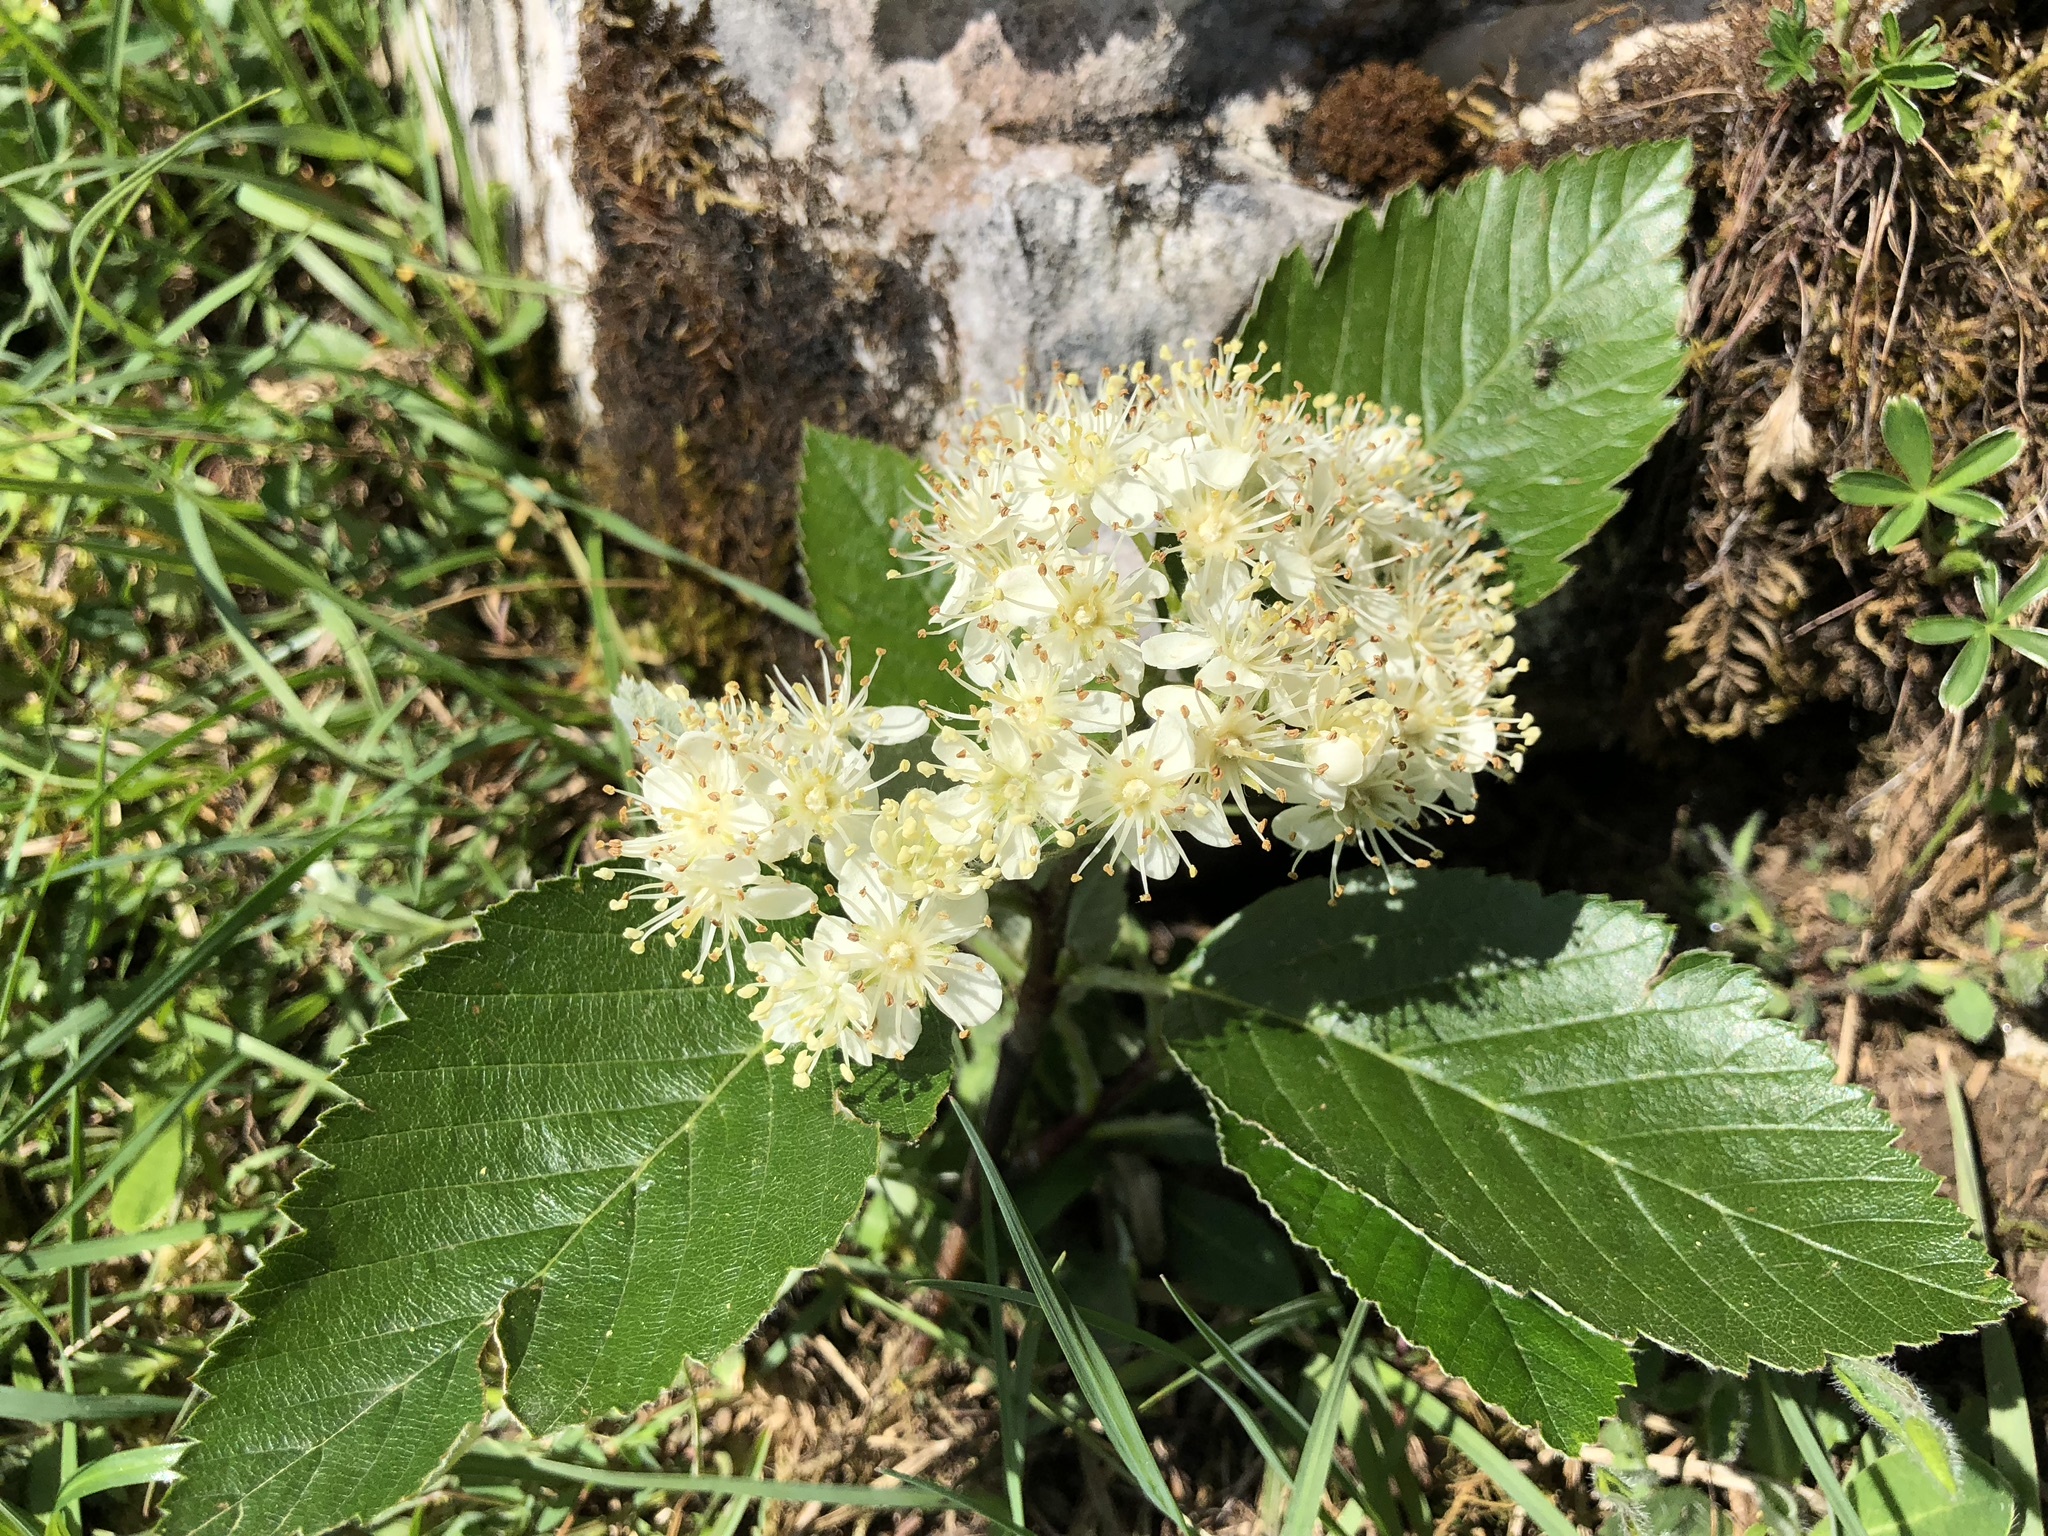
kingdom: Plantae
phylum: Tracheophyta
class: Magnoliopsida
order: Rosales
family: Rosaceae
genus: Hedlundia
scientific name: Hedlundia mougeotii
